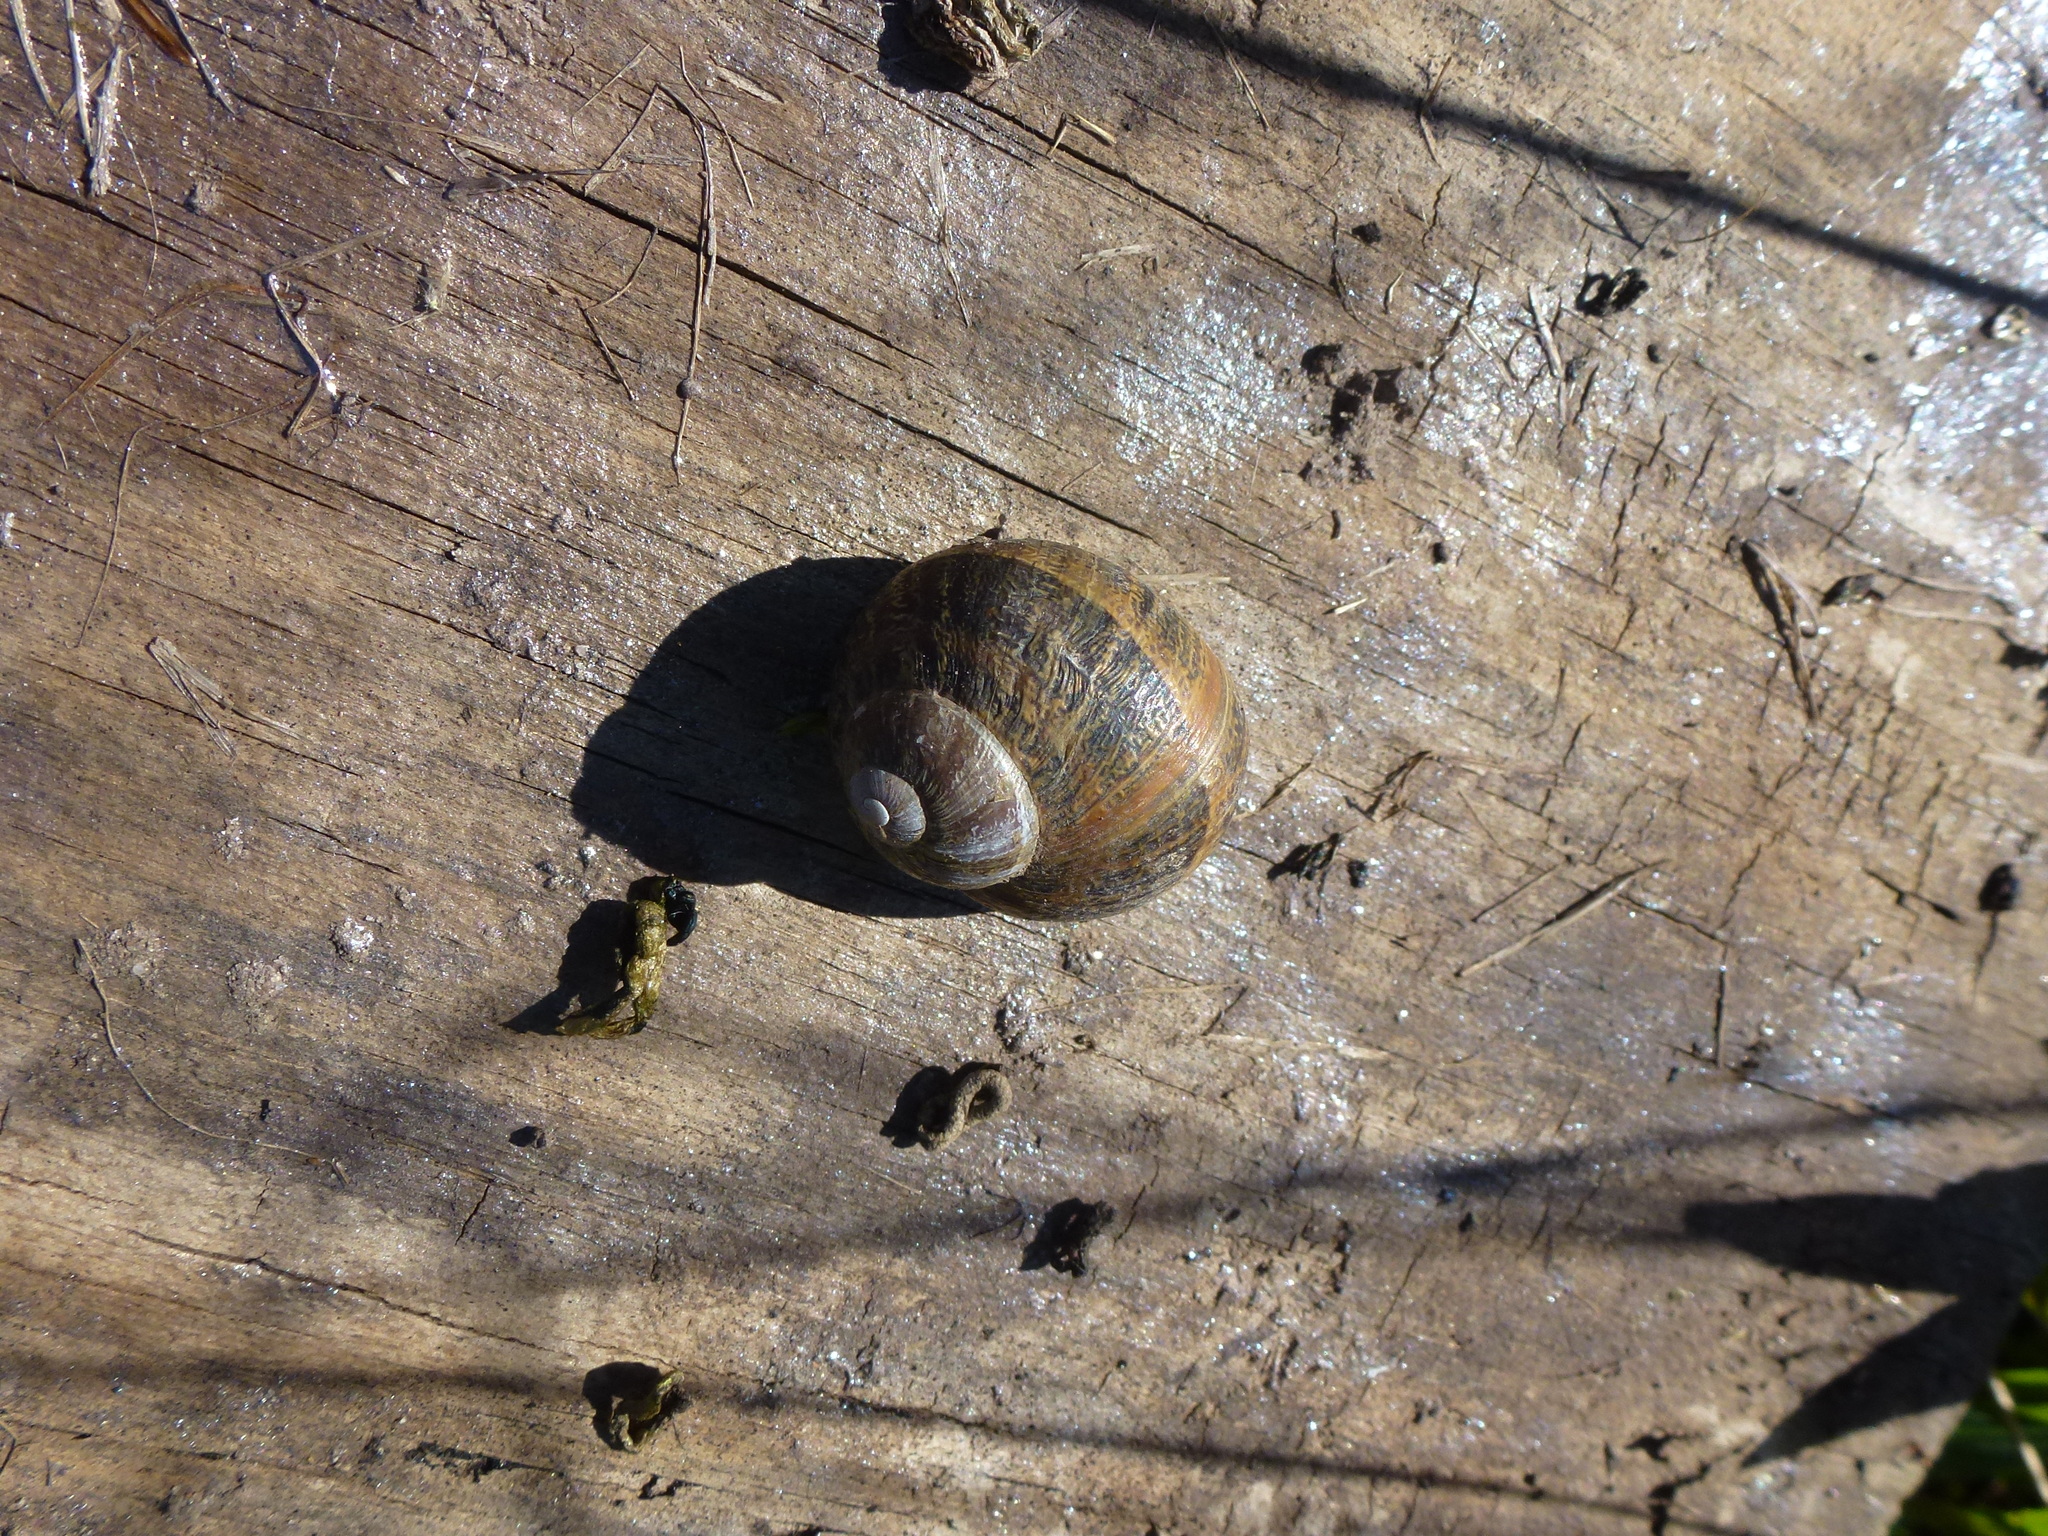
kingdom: Animalia
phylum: Mollusca
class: Gastropoda
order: Stylommatophora
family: Helicidae
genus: Cornu
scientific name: Cornu aspersum
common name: Brown garden snail
